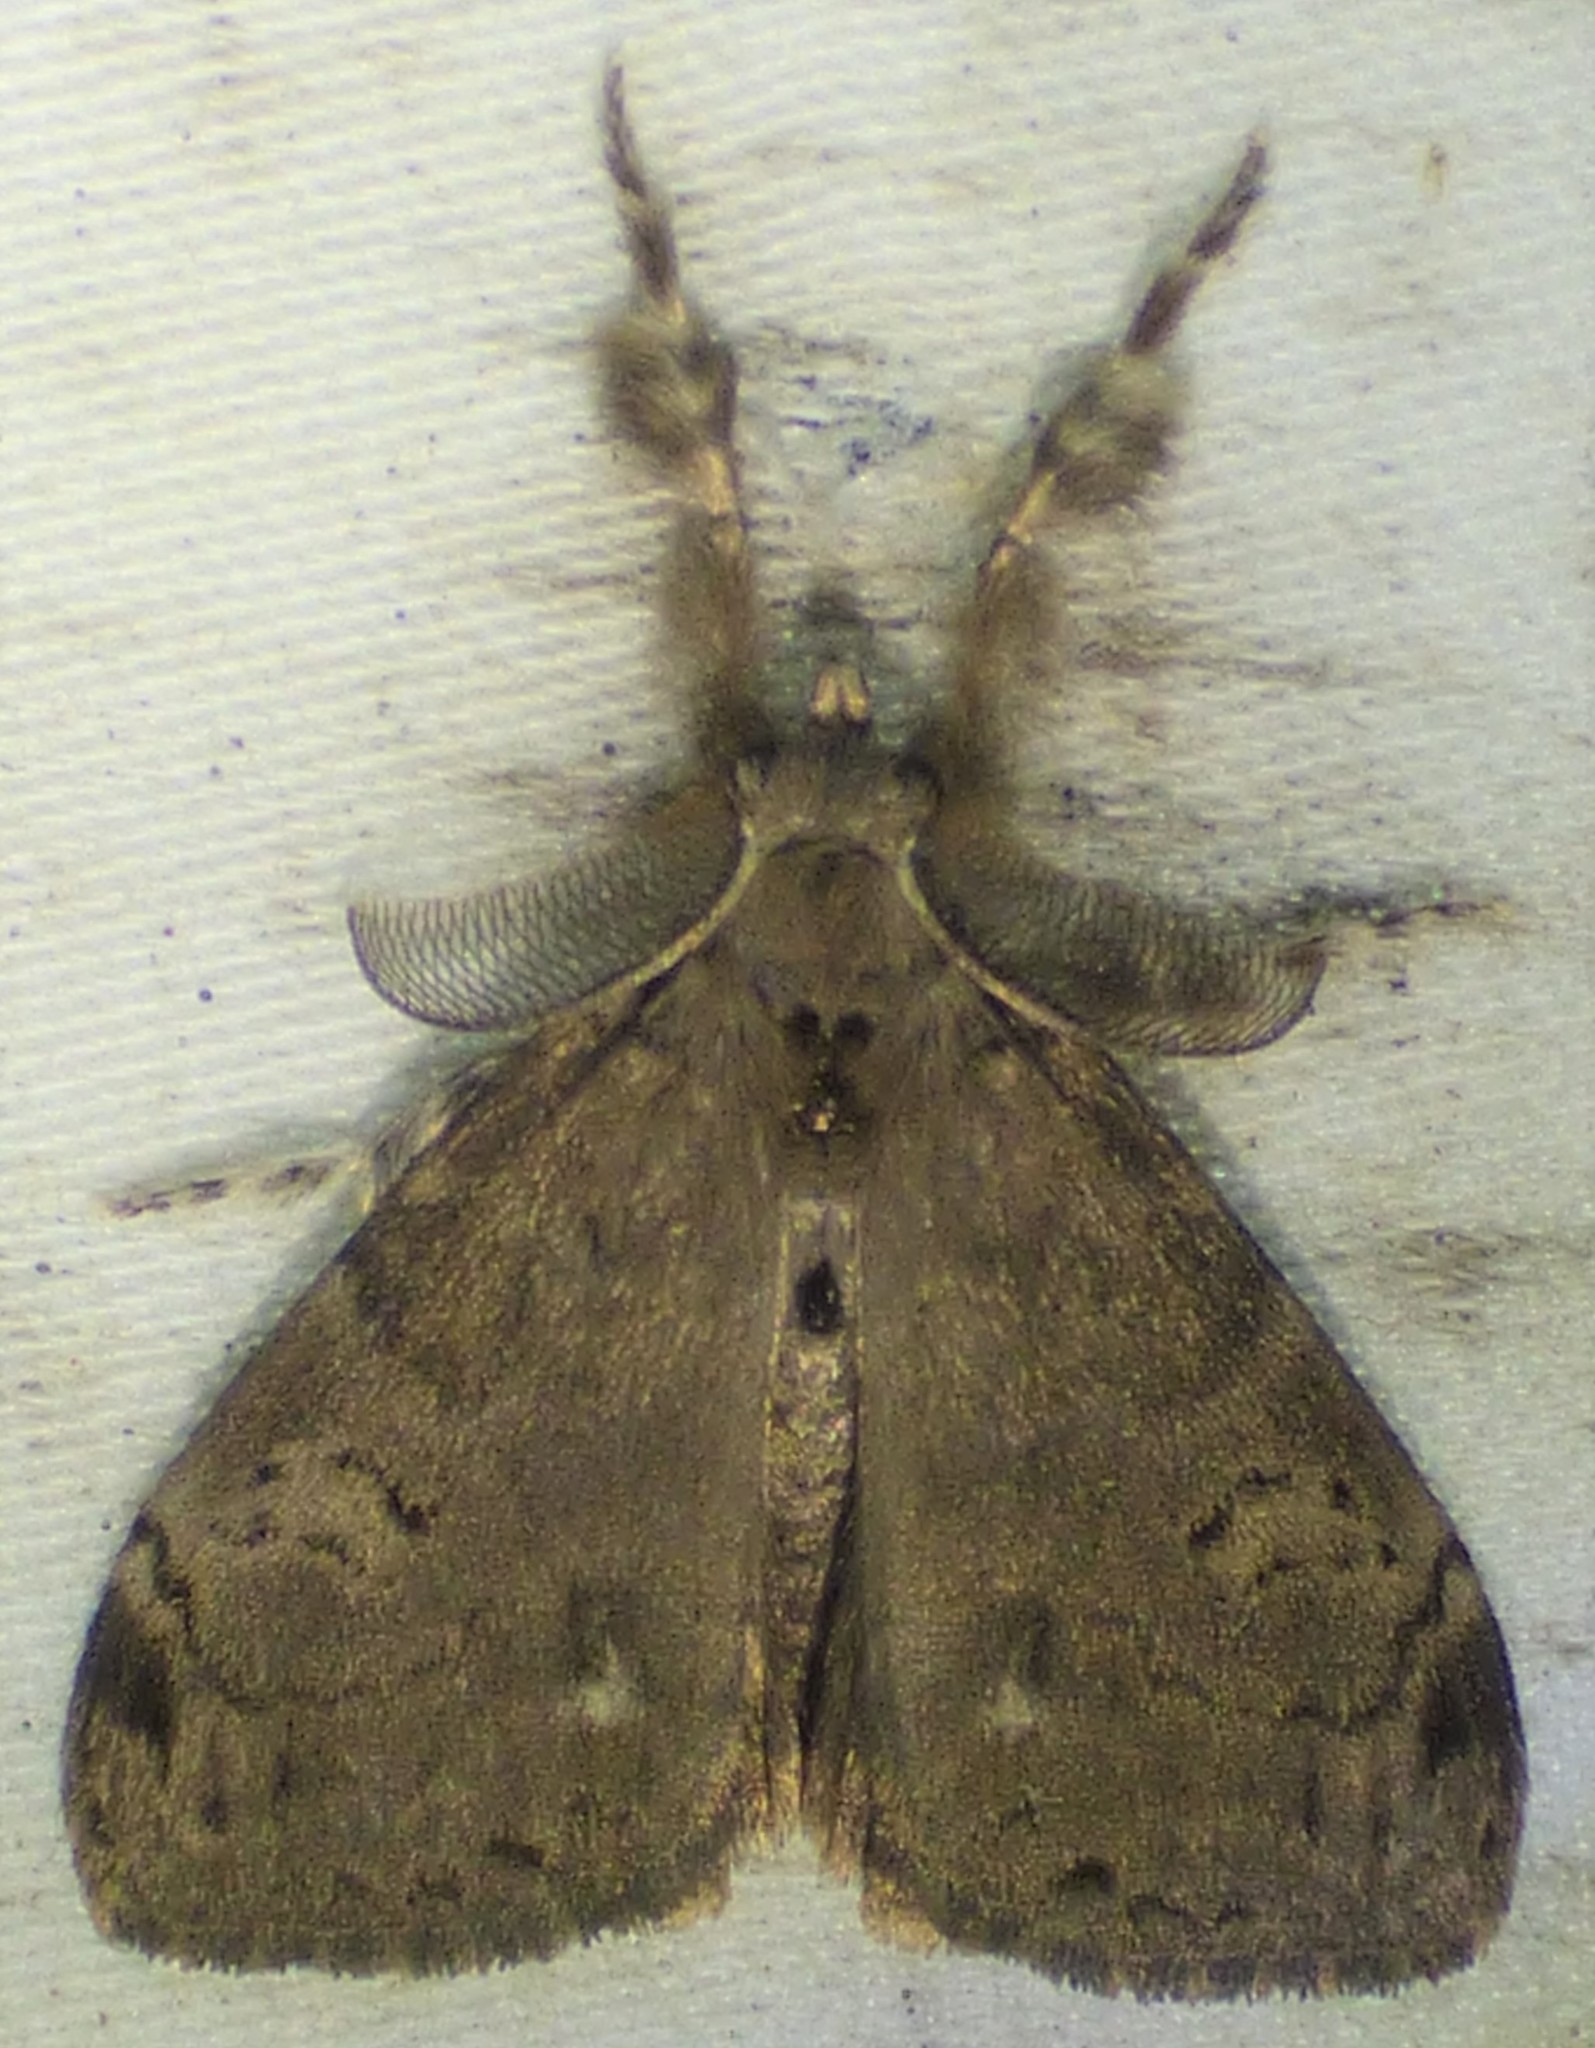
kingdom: Animalia
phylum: Arthropoda
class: Insecta
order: Lepidoptera
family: Erebidae
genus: Orgyia
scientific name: Orgyia leucostigma
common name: White-marked tussock moth
